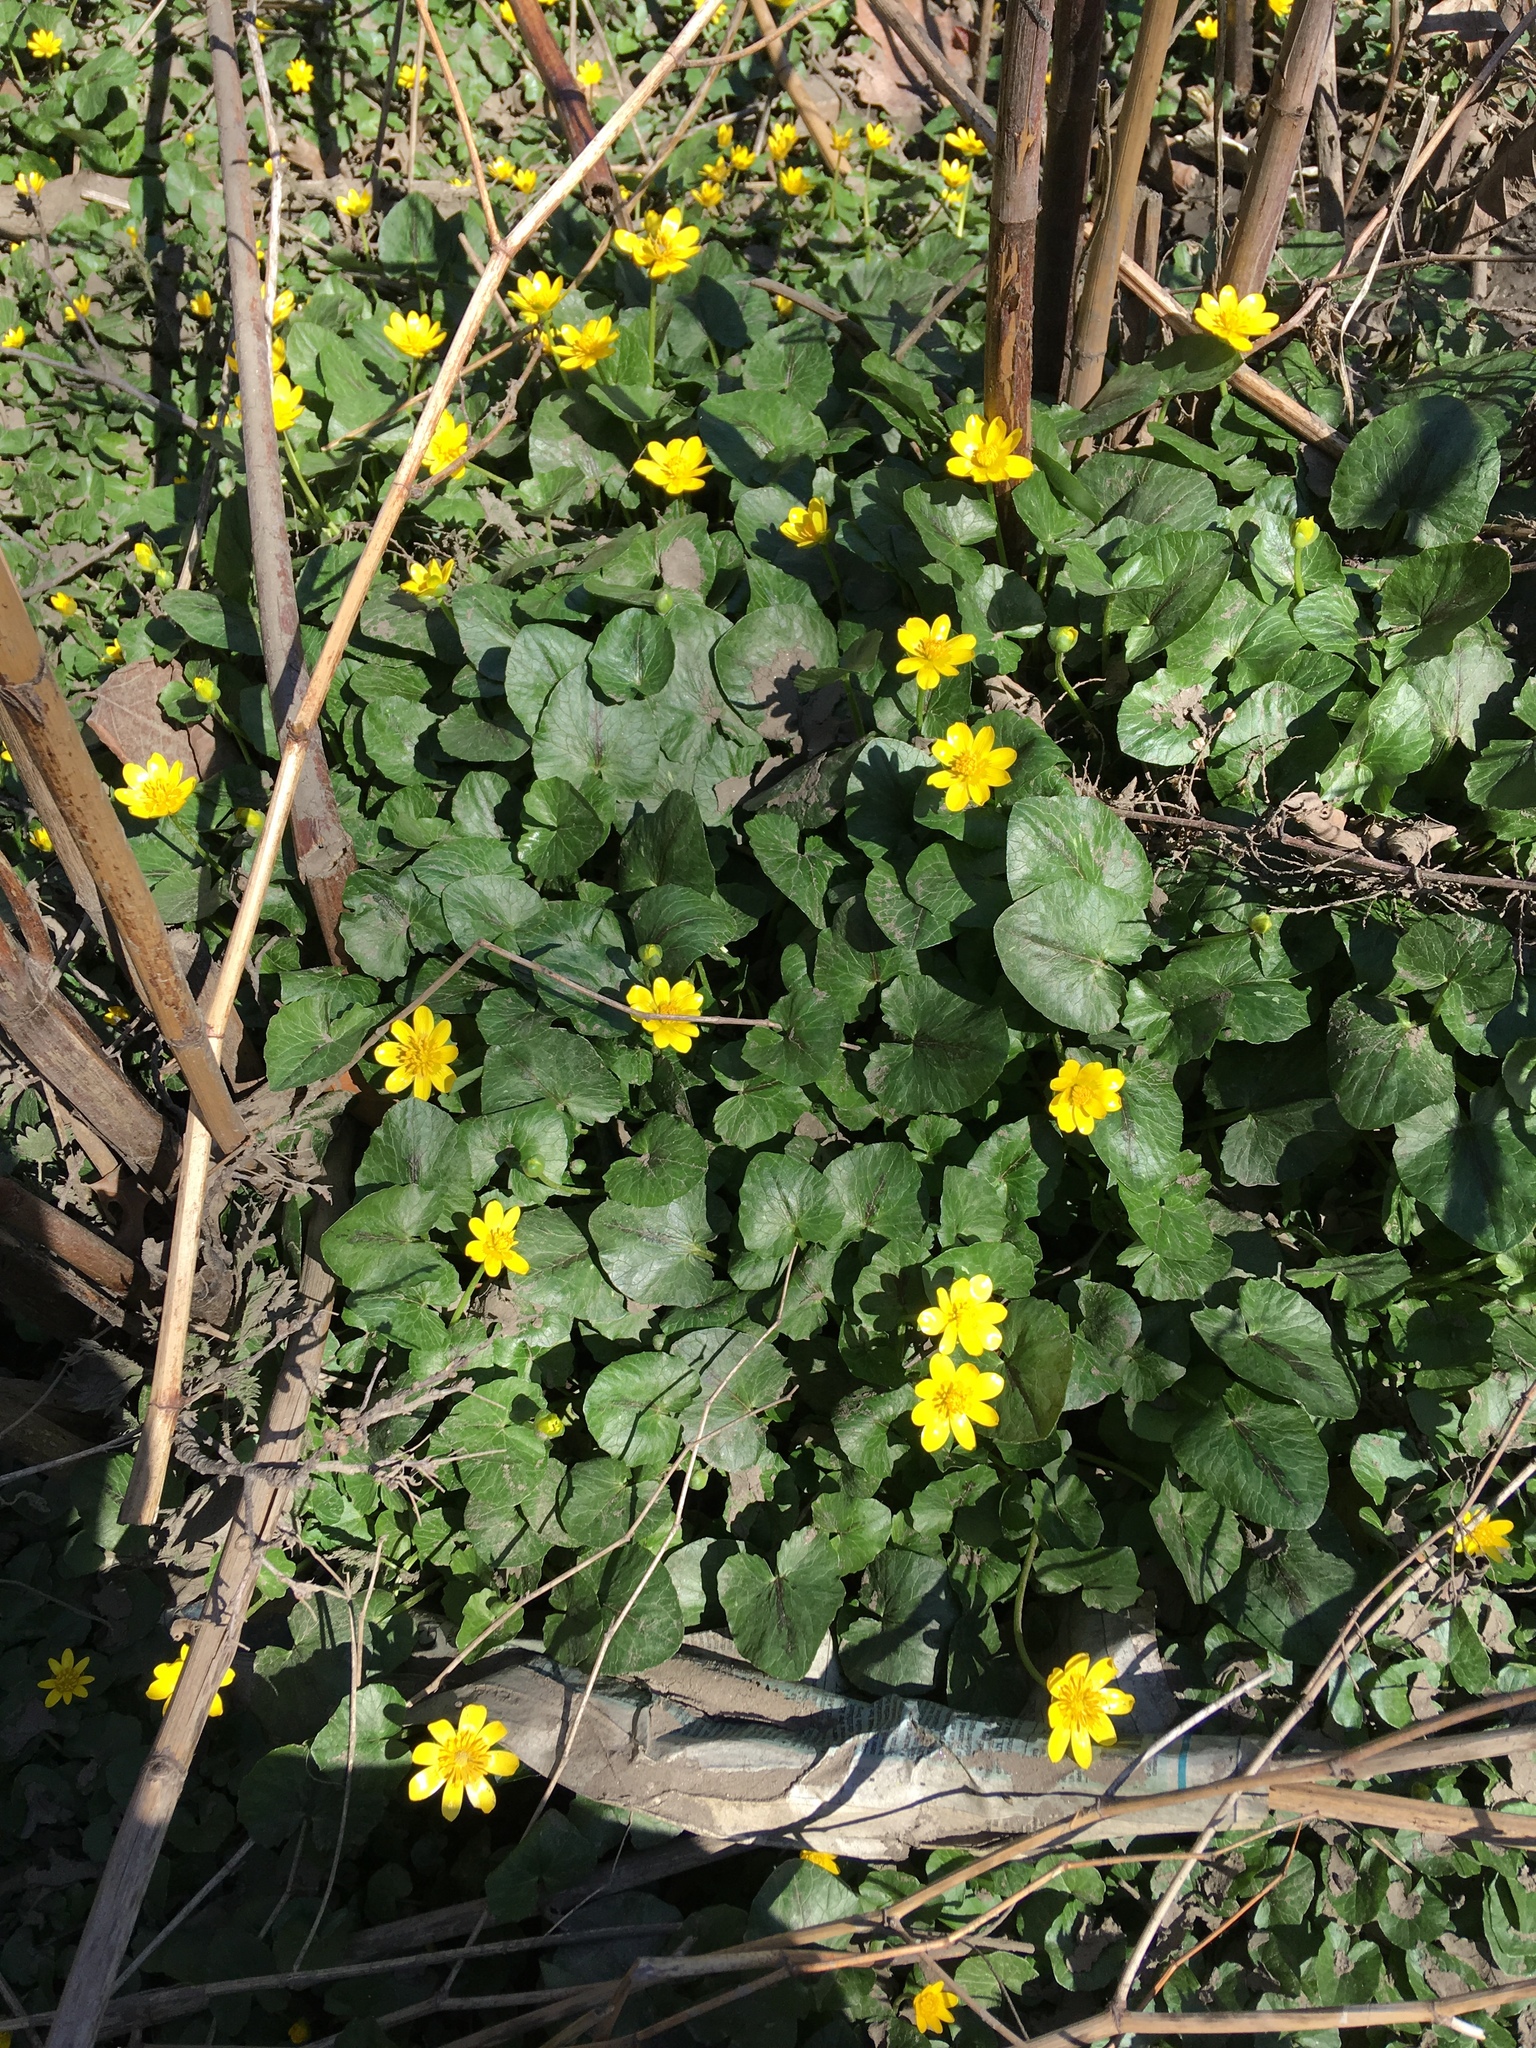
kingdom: Plantae
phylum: Tracheophyta
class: Magnoliopsida
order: Ranunculales
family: Ranunculaceae
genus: Ficaria
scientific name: Ficaria verna
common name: Lesser celandine
